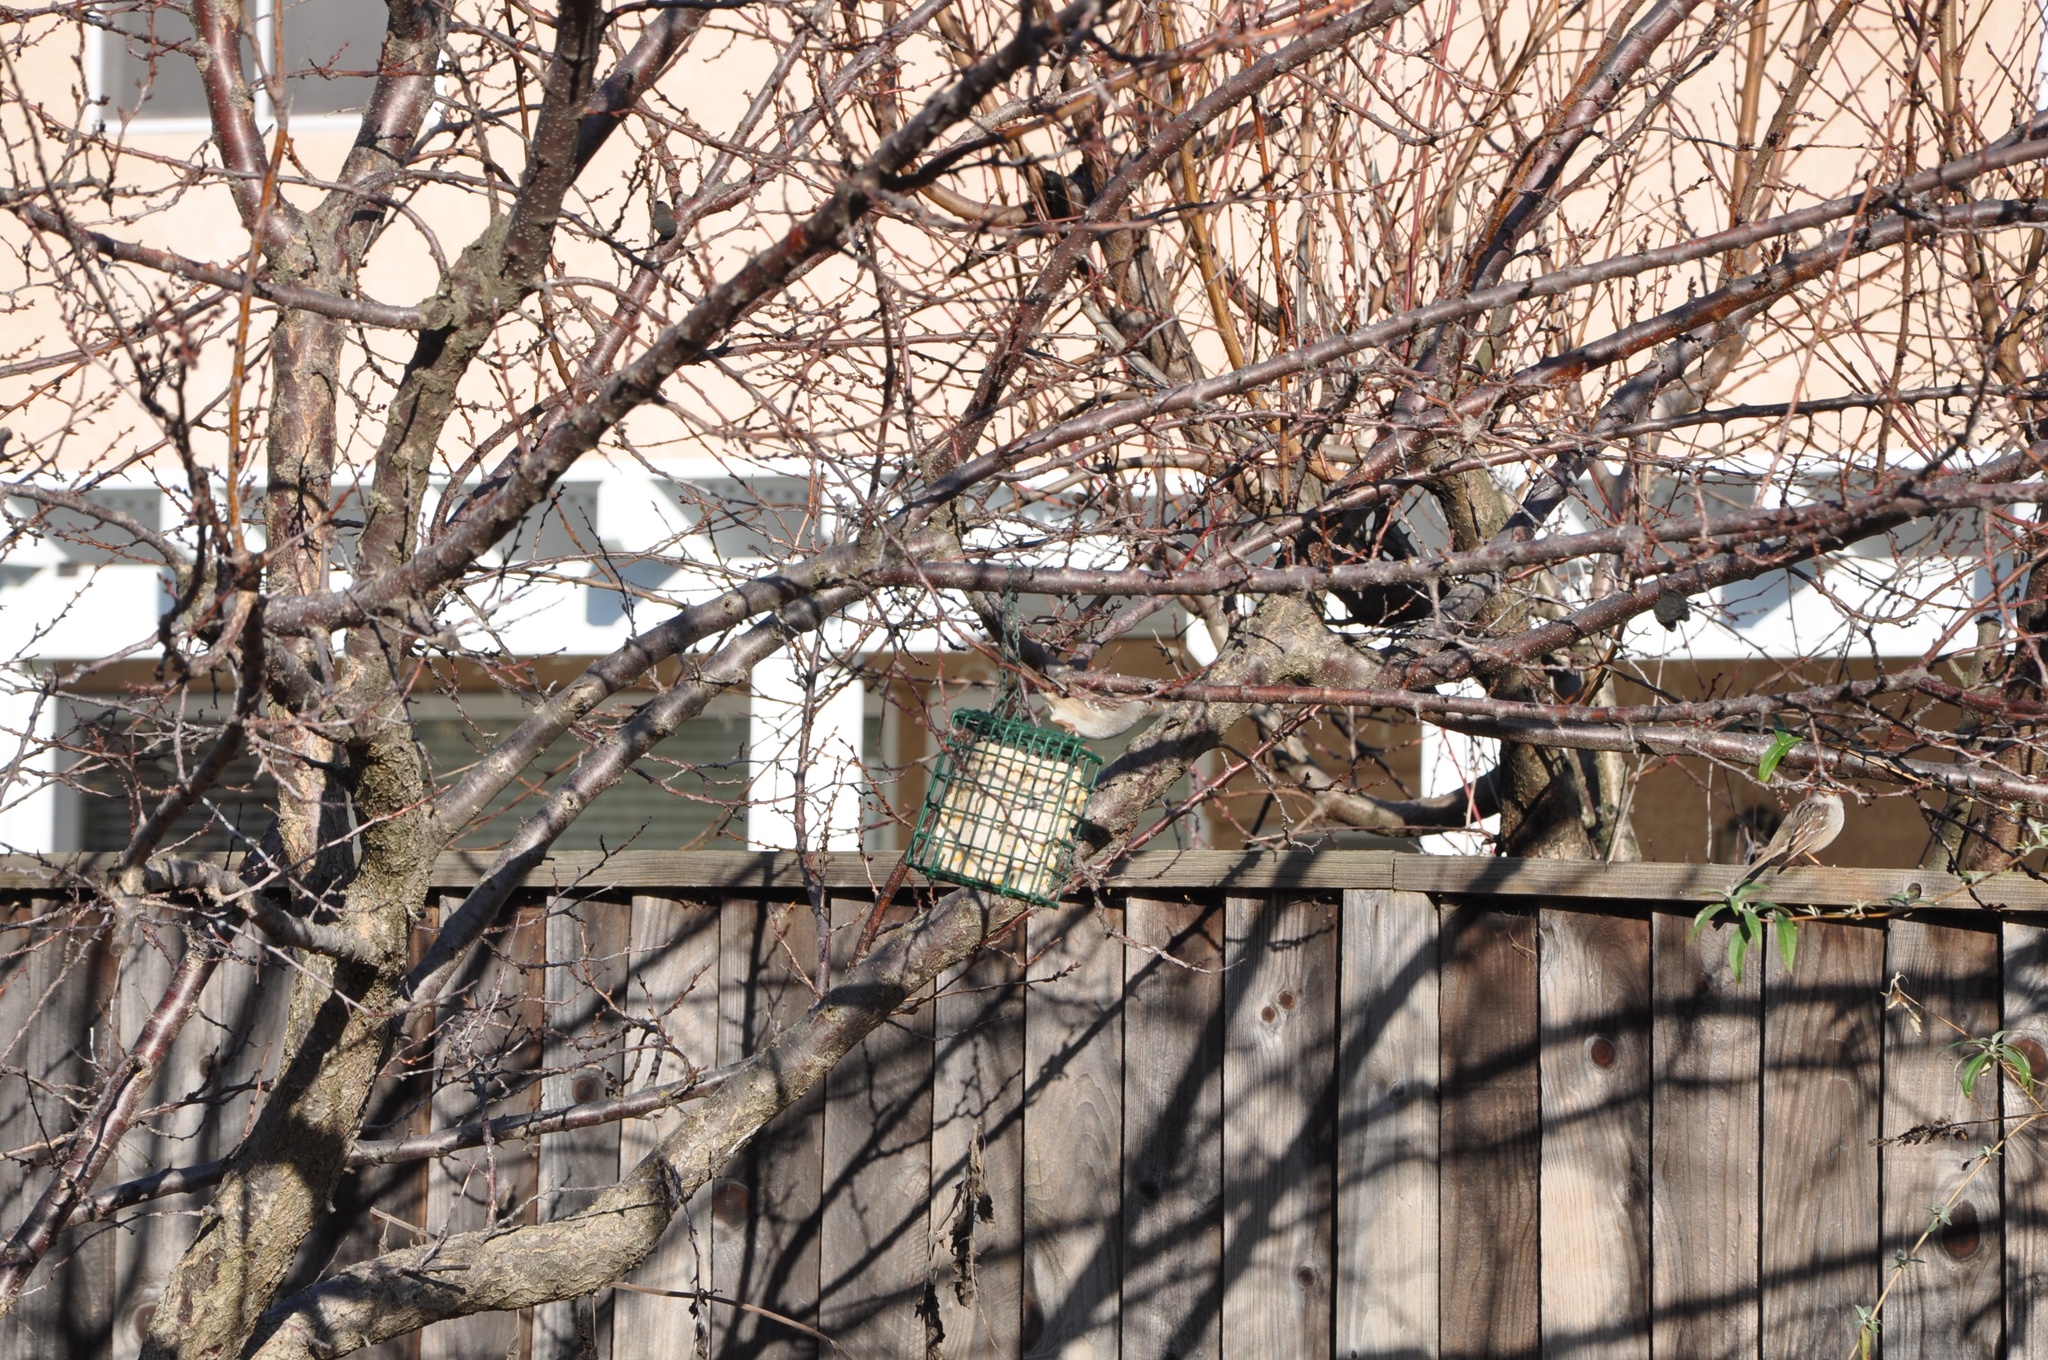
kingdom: Animalia
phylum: Chordata
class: Aves
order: Passeriformes
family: Passerellidae
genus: Zonotrichia
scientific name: Zonotrichia leucophrys
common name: White-crowned sparrow
